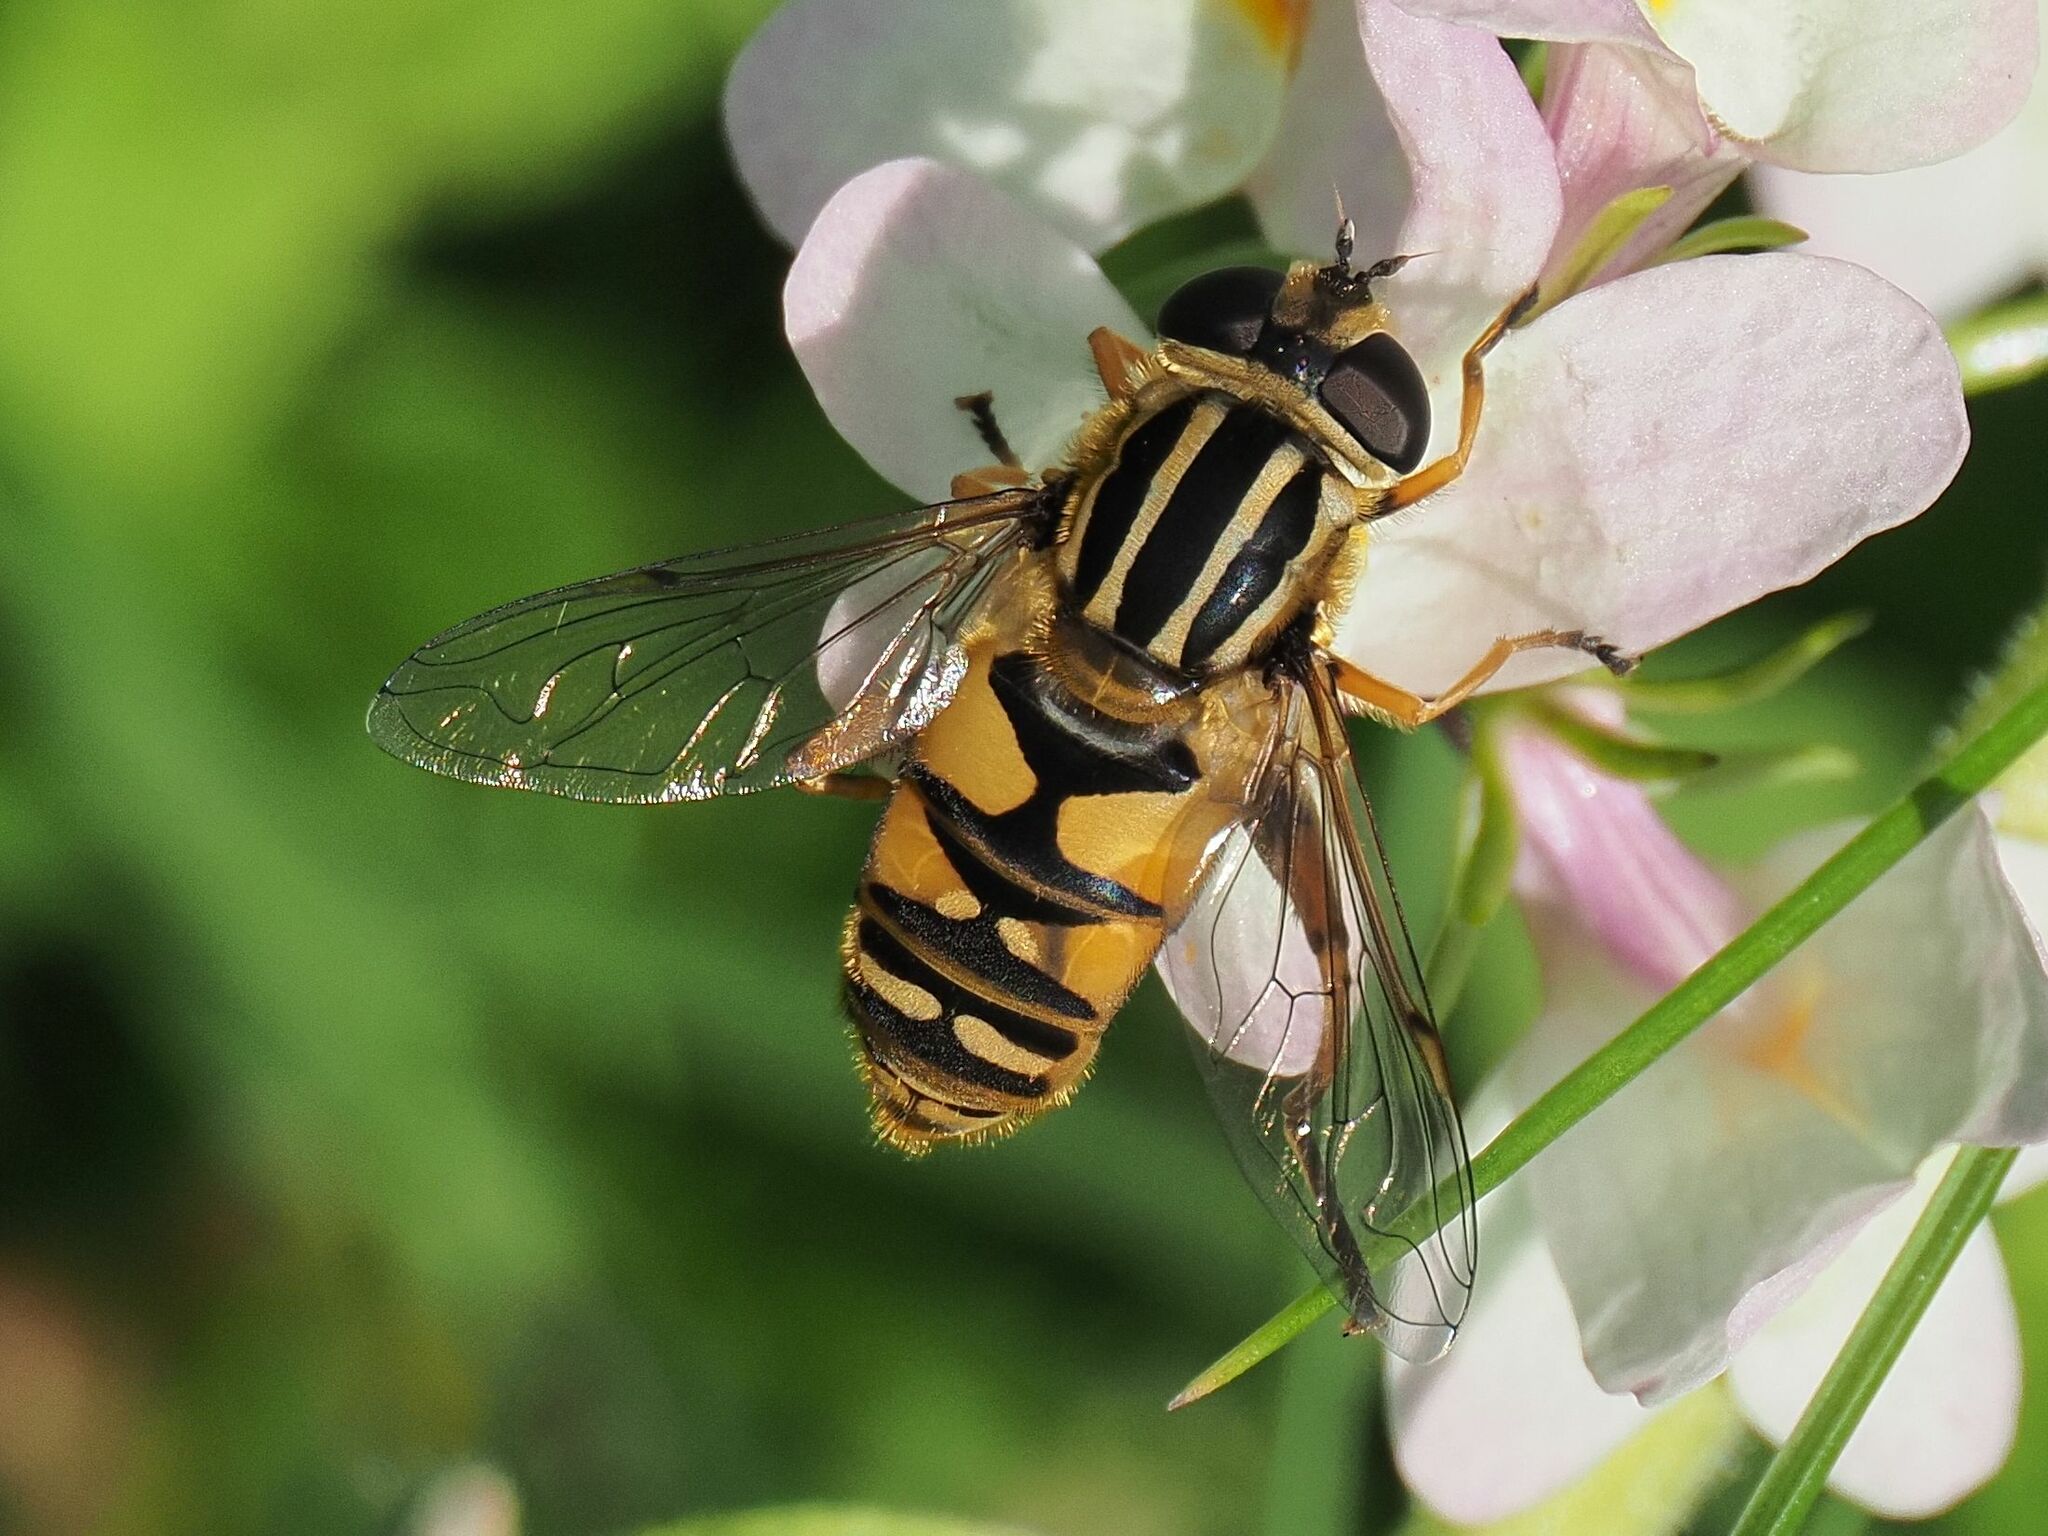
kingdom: Animalia
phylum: Arthropoda
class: Insecta
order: Diptera
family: Syrphidae
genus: Helophilus
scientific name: Helophilus pendulus
